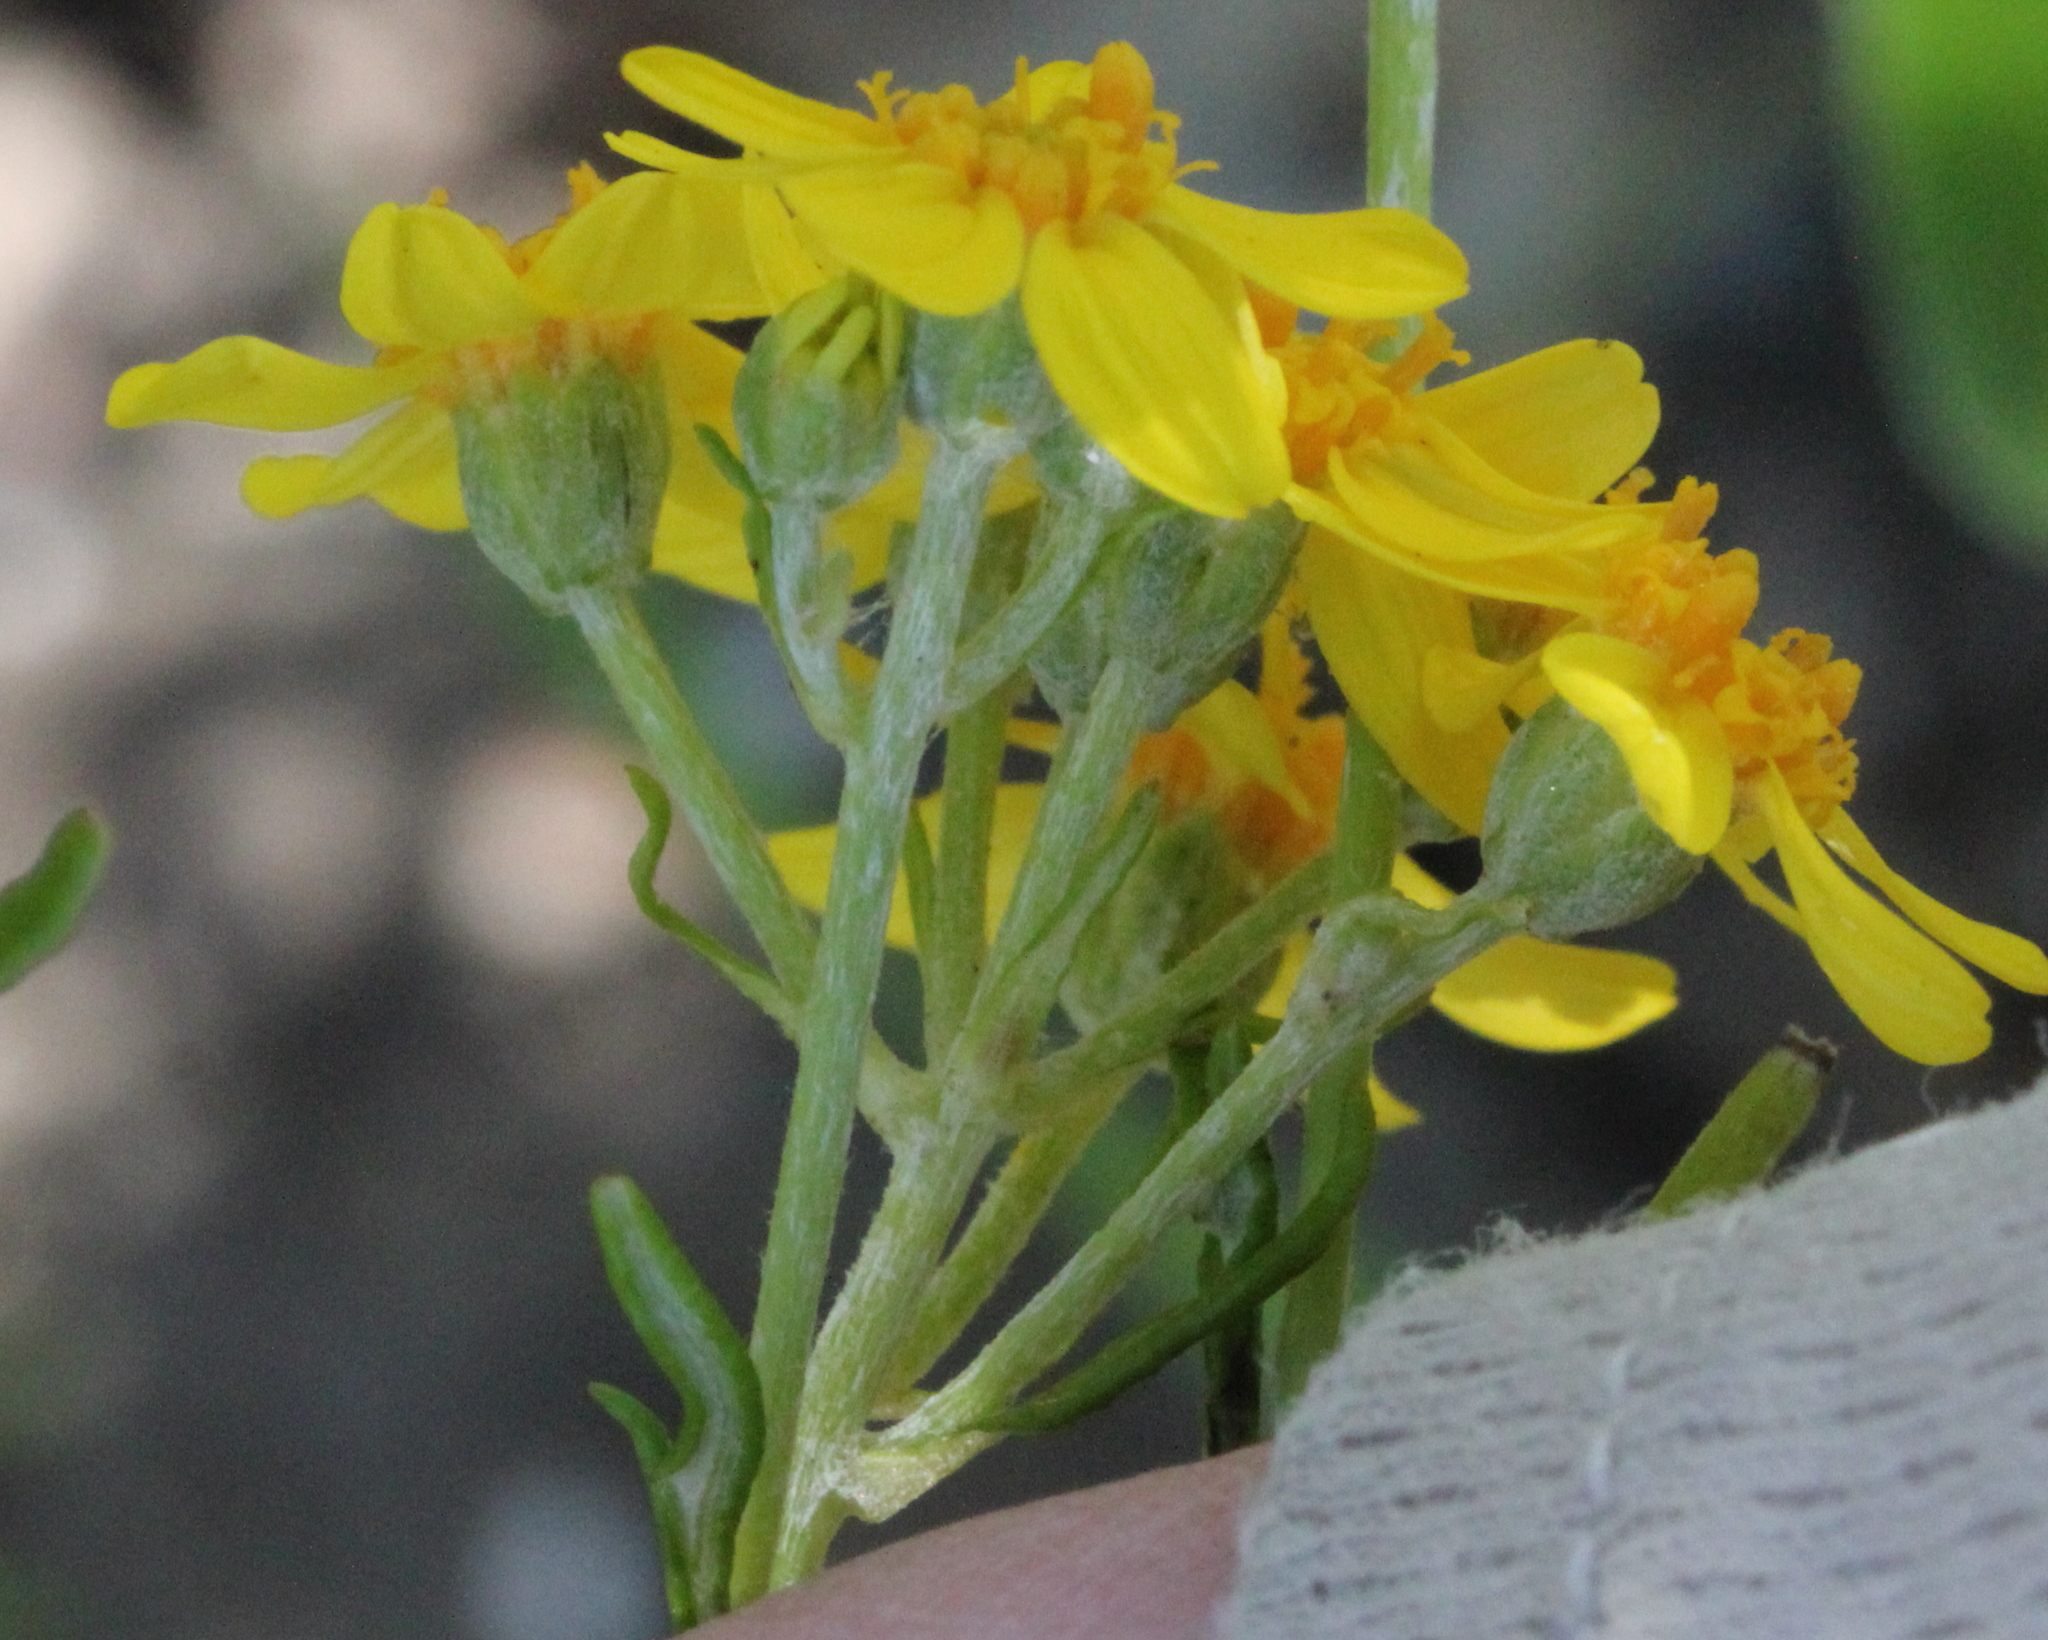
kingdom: Plantae
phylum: Tracheophyta
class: Magnoliopsida
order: Asterales
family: Asteraceae
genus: Eriophyllum
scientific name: Eriophyllum confertiflorum
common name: Golden-yarrow
